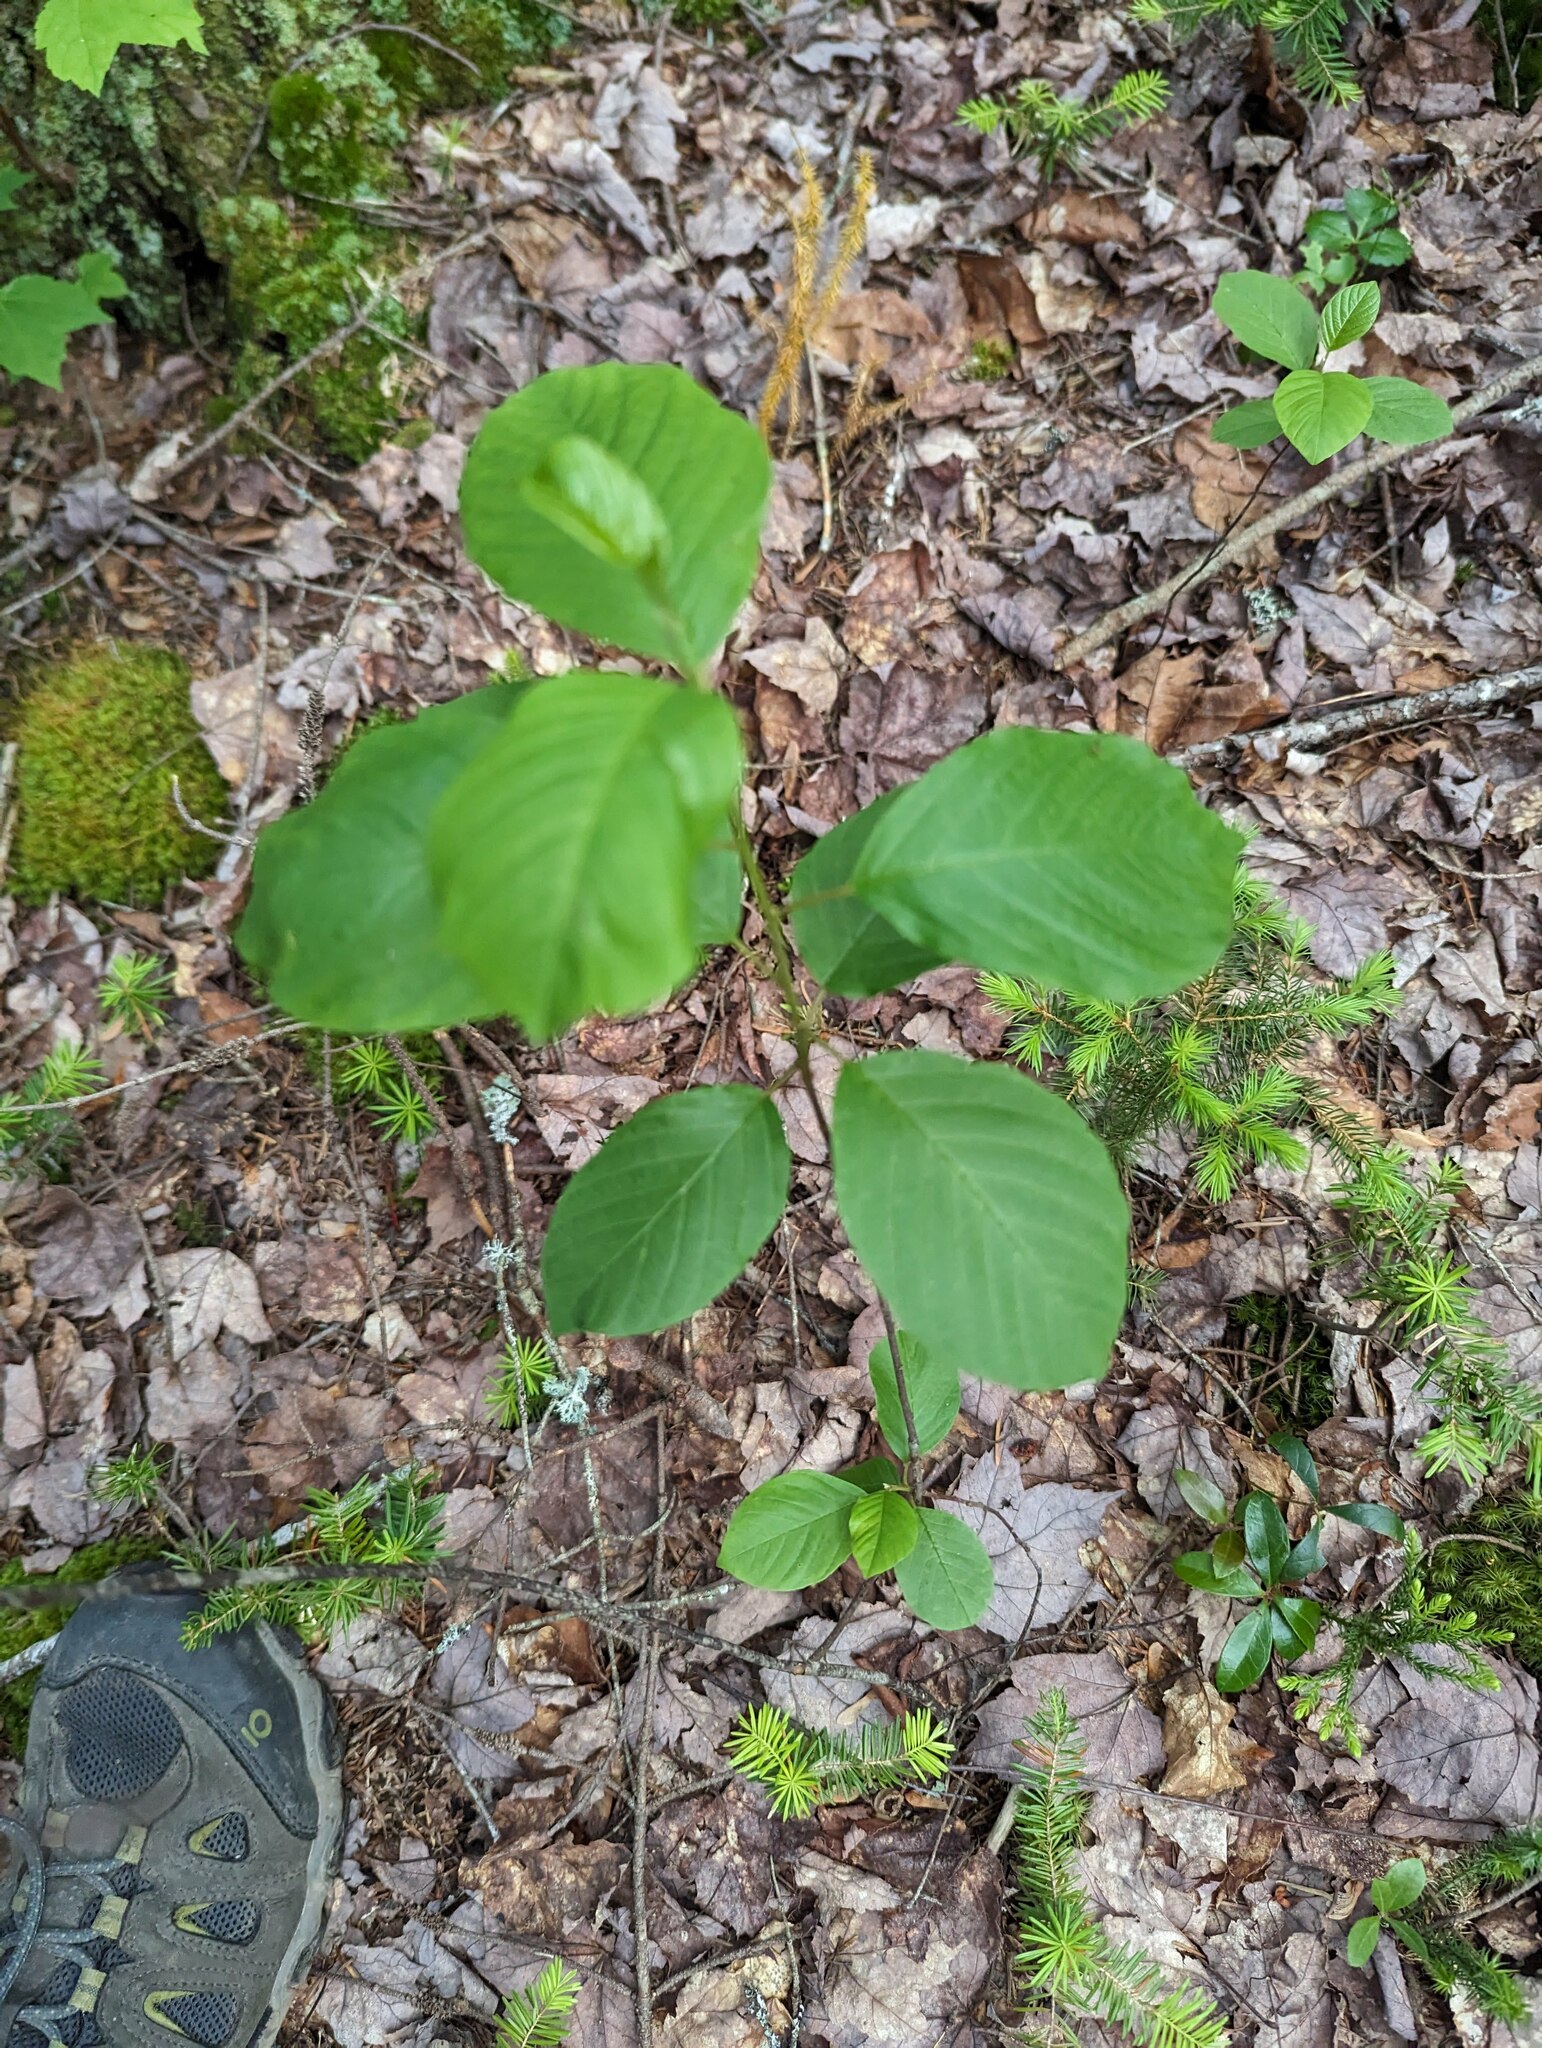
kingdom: Plantae
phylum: Tracheophyta
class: Magnoliopsida
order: Rosales
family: Rhamnaceae
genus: Frangula
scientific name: Frangula alnus
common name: Alder buckthorn
